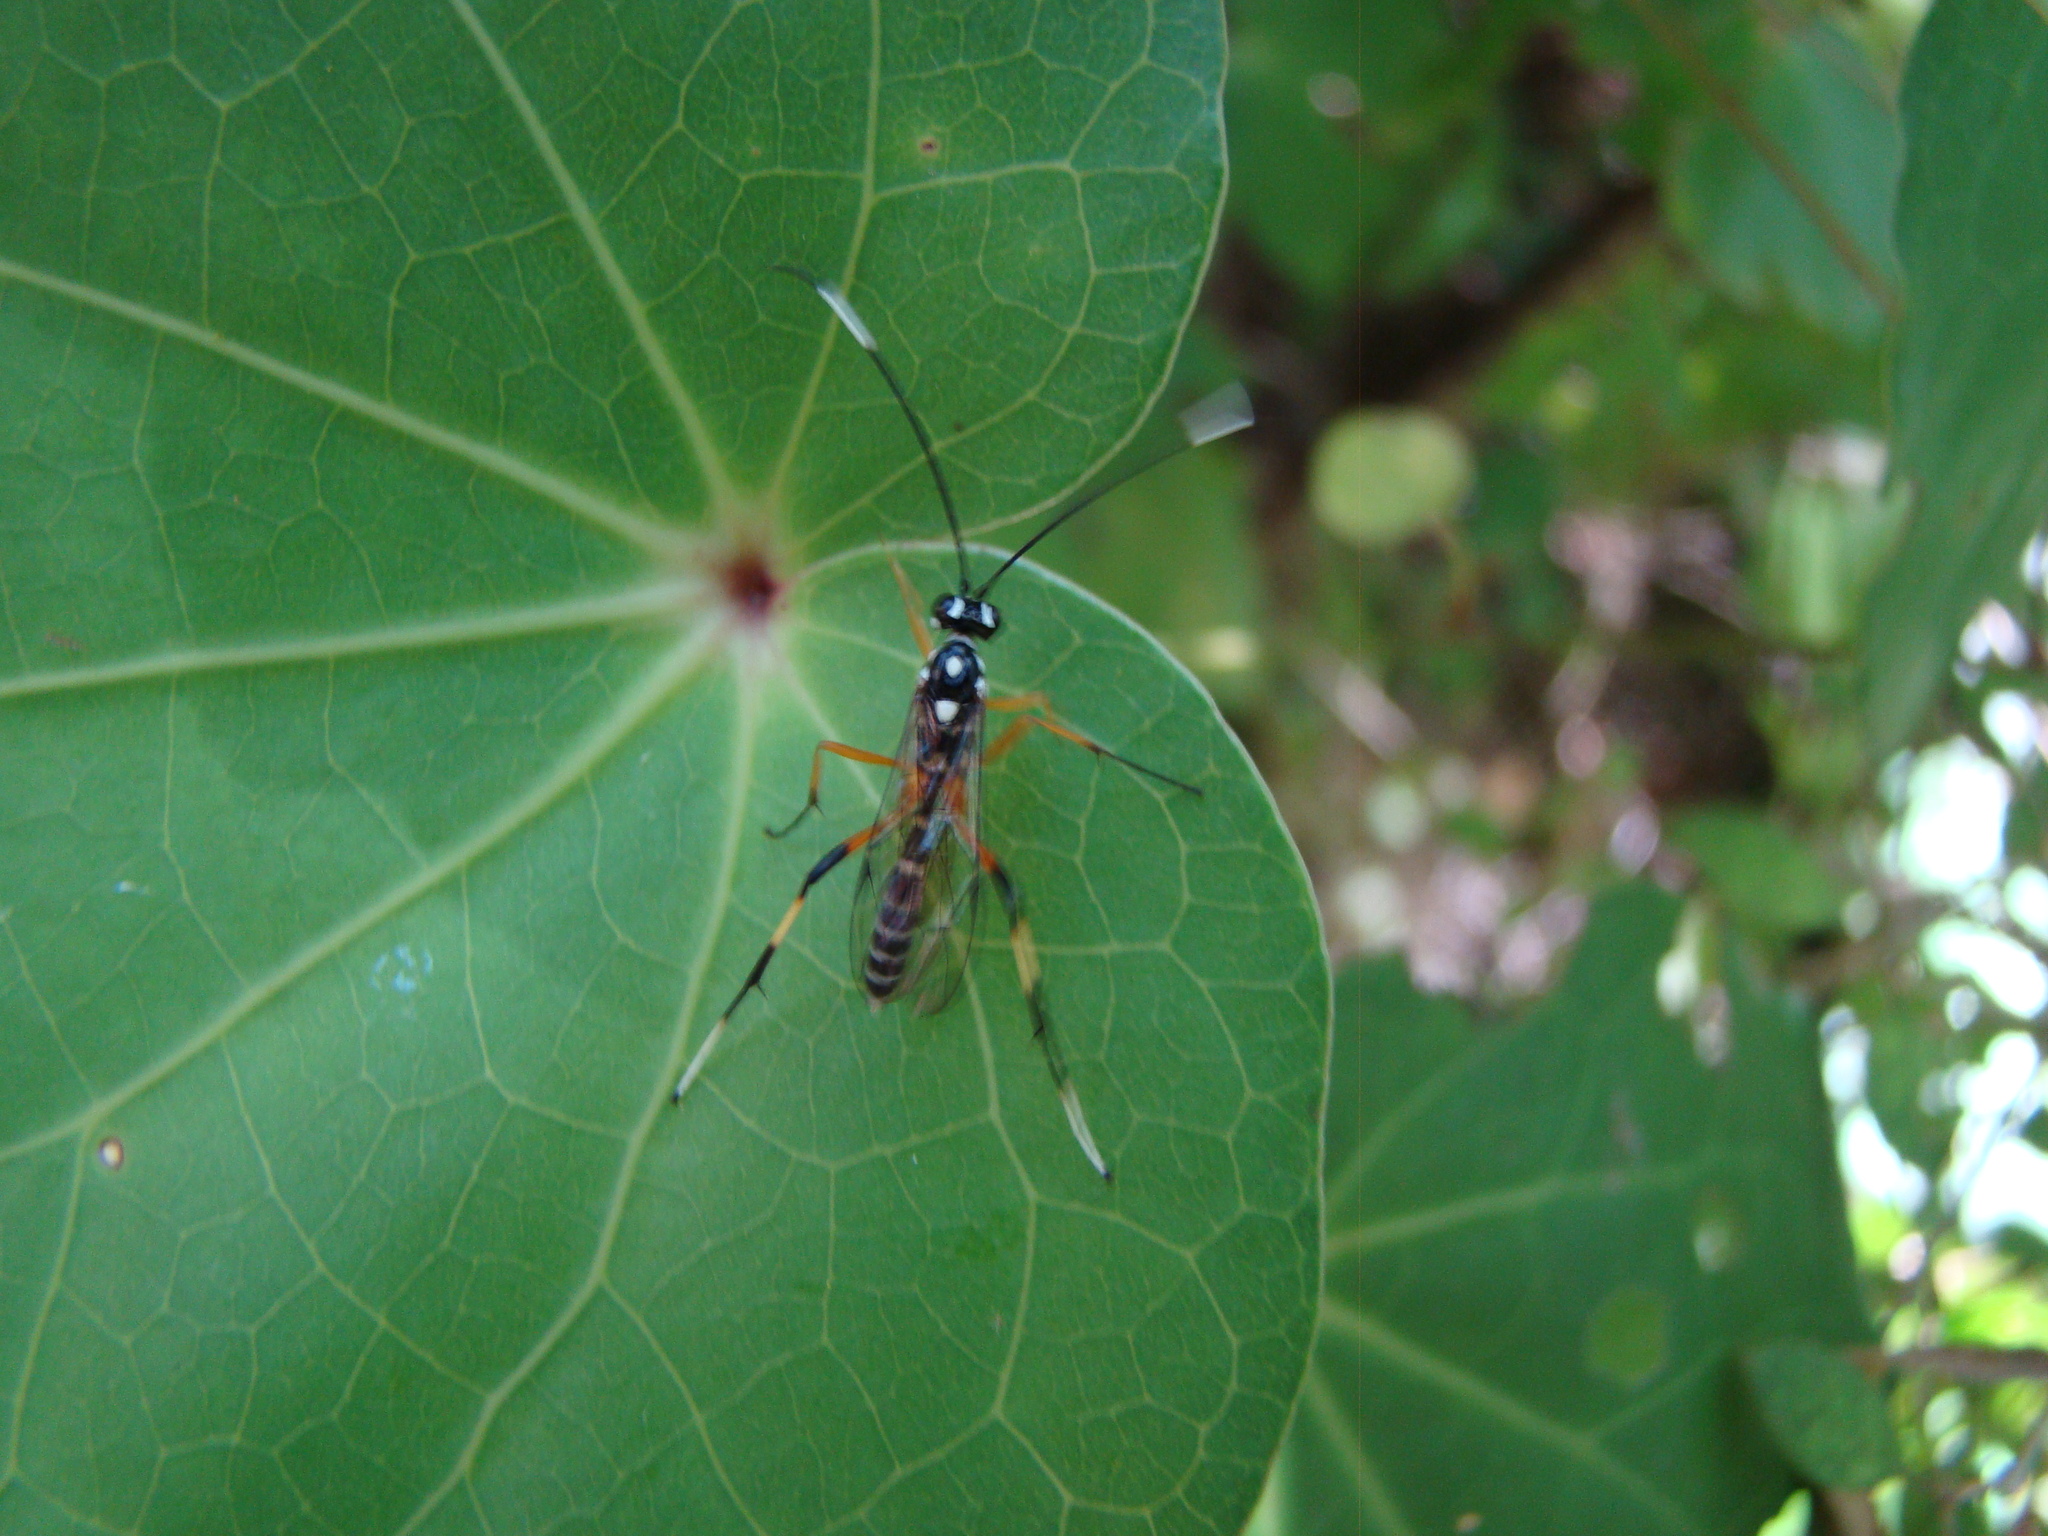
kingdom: Animalia
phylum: Arthropoda
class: Insecta
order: Hymenoptera
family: Ichneumonidae
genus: Xanthocryptus
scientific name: Xanthocryptus novozealandicus
